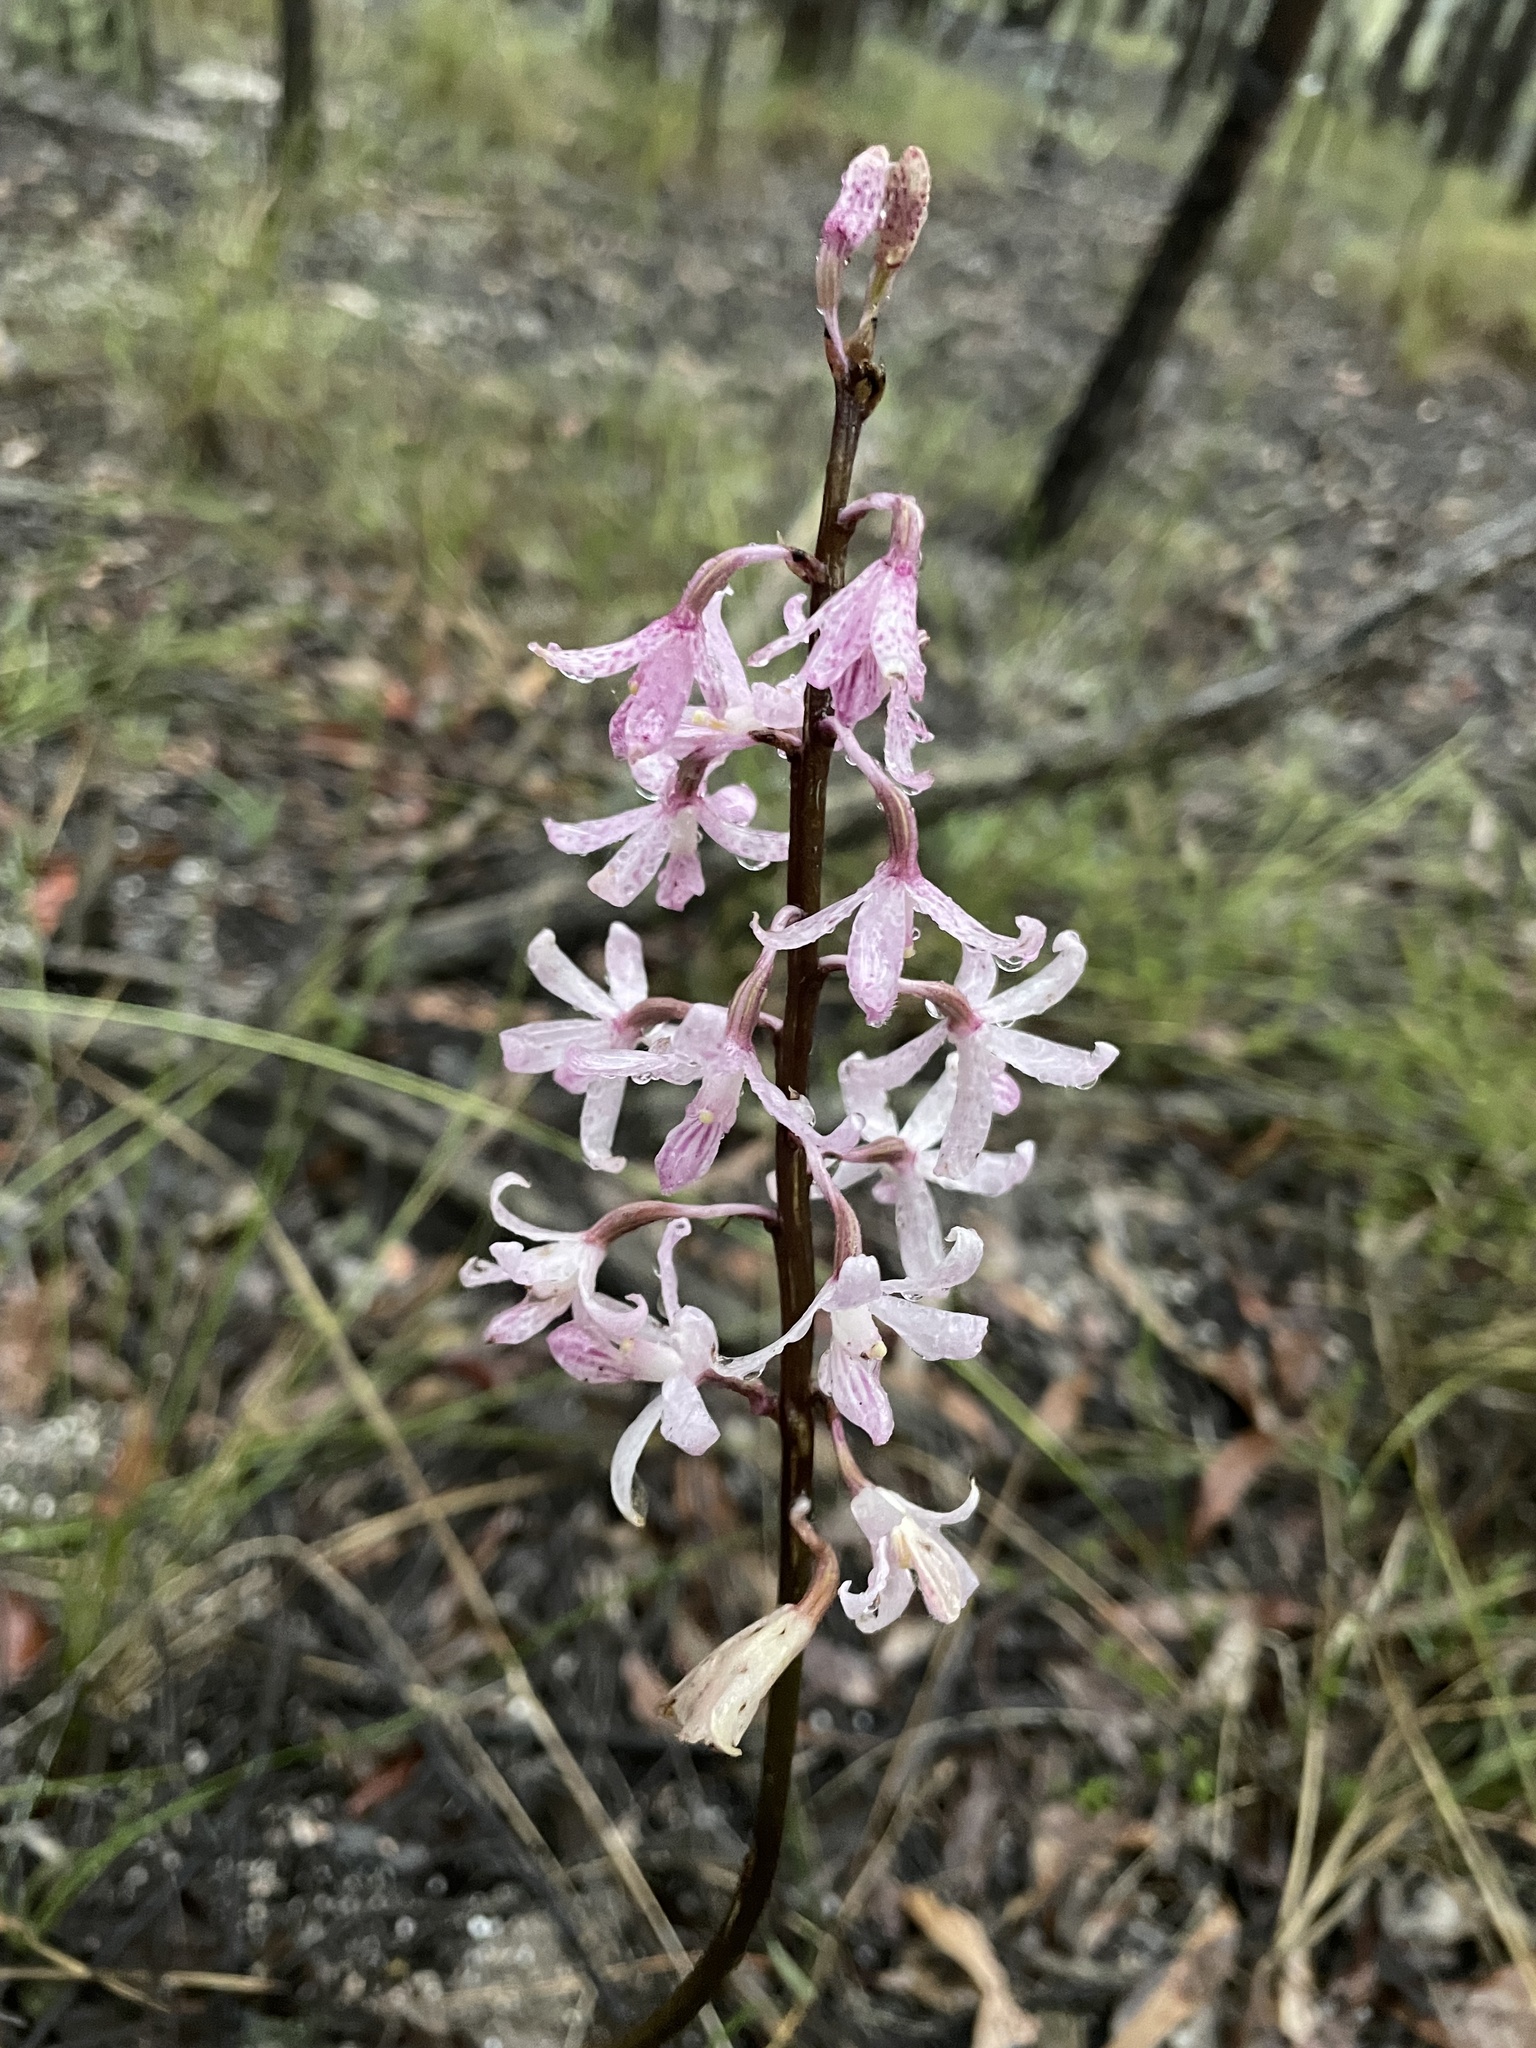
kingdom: Plantae
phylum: Tracheophyta
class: Liliopsida
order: Asparagales
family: Orchidaceae
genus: Dipodium
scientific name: Dipodium roseum
